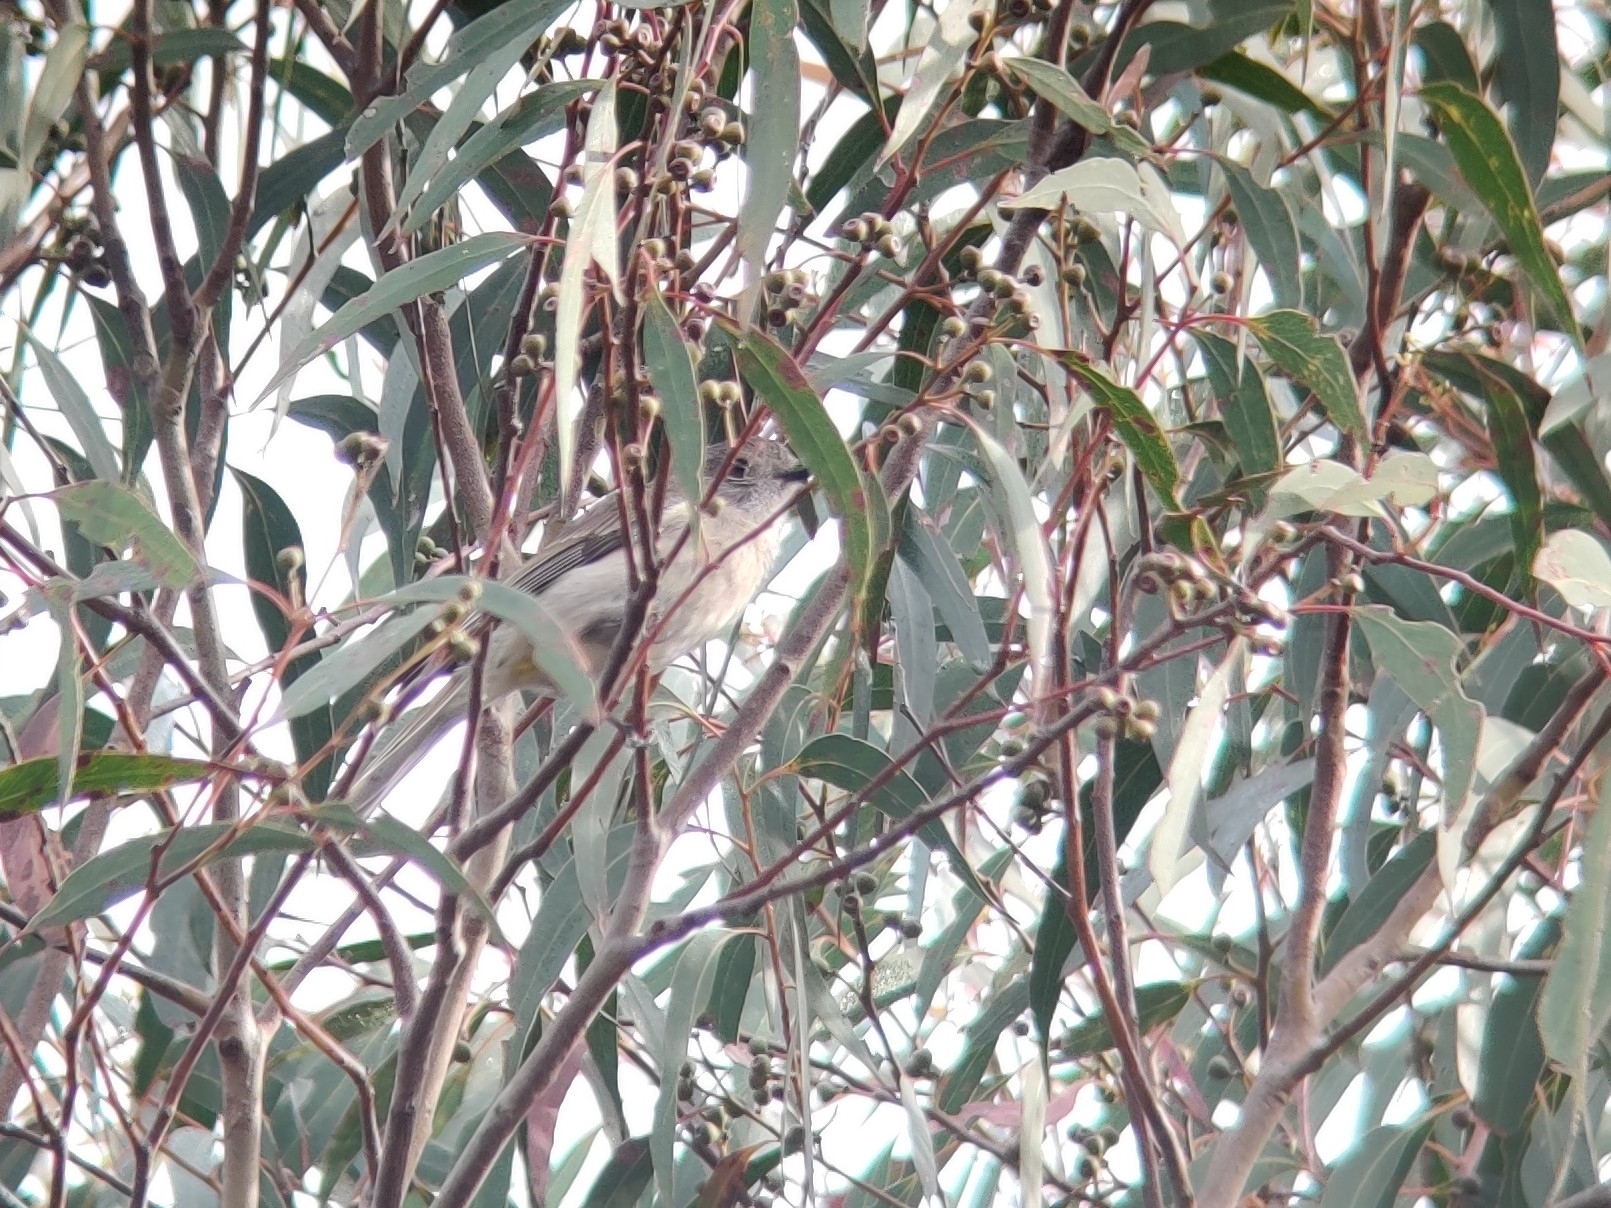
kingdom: Animalia
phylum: Chordata
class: Aves
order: Passeriformes
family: Pachycephalidae
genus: Pachycephala
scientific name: Pachycephala pectoralis
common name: Australian golden whistler
